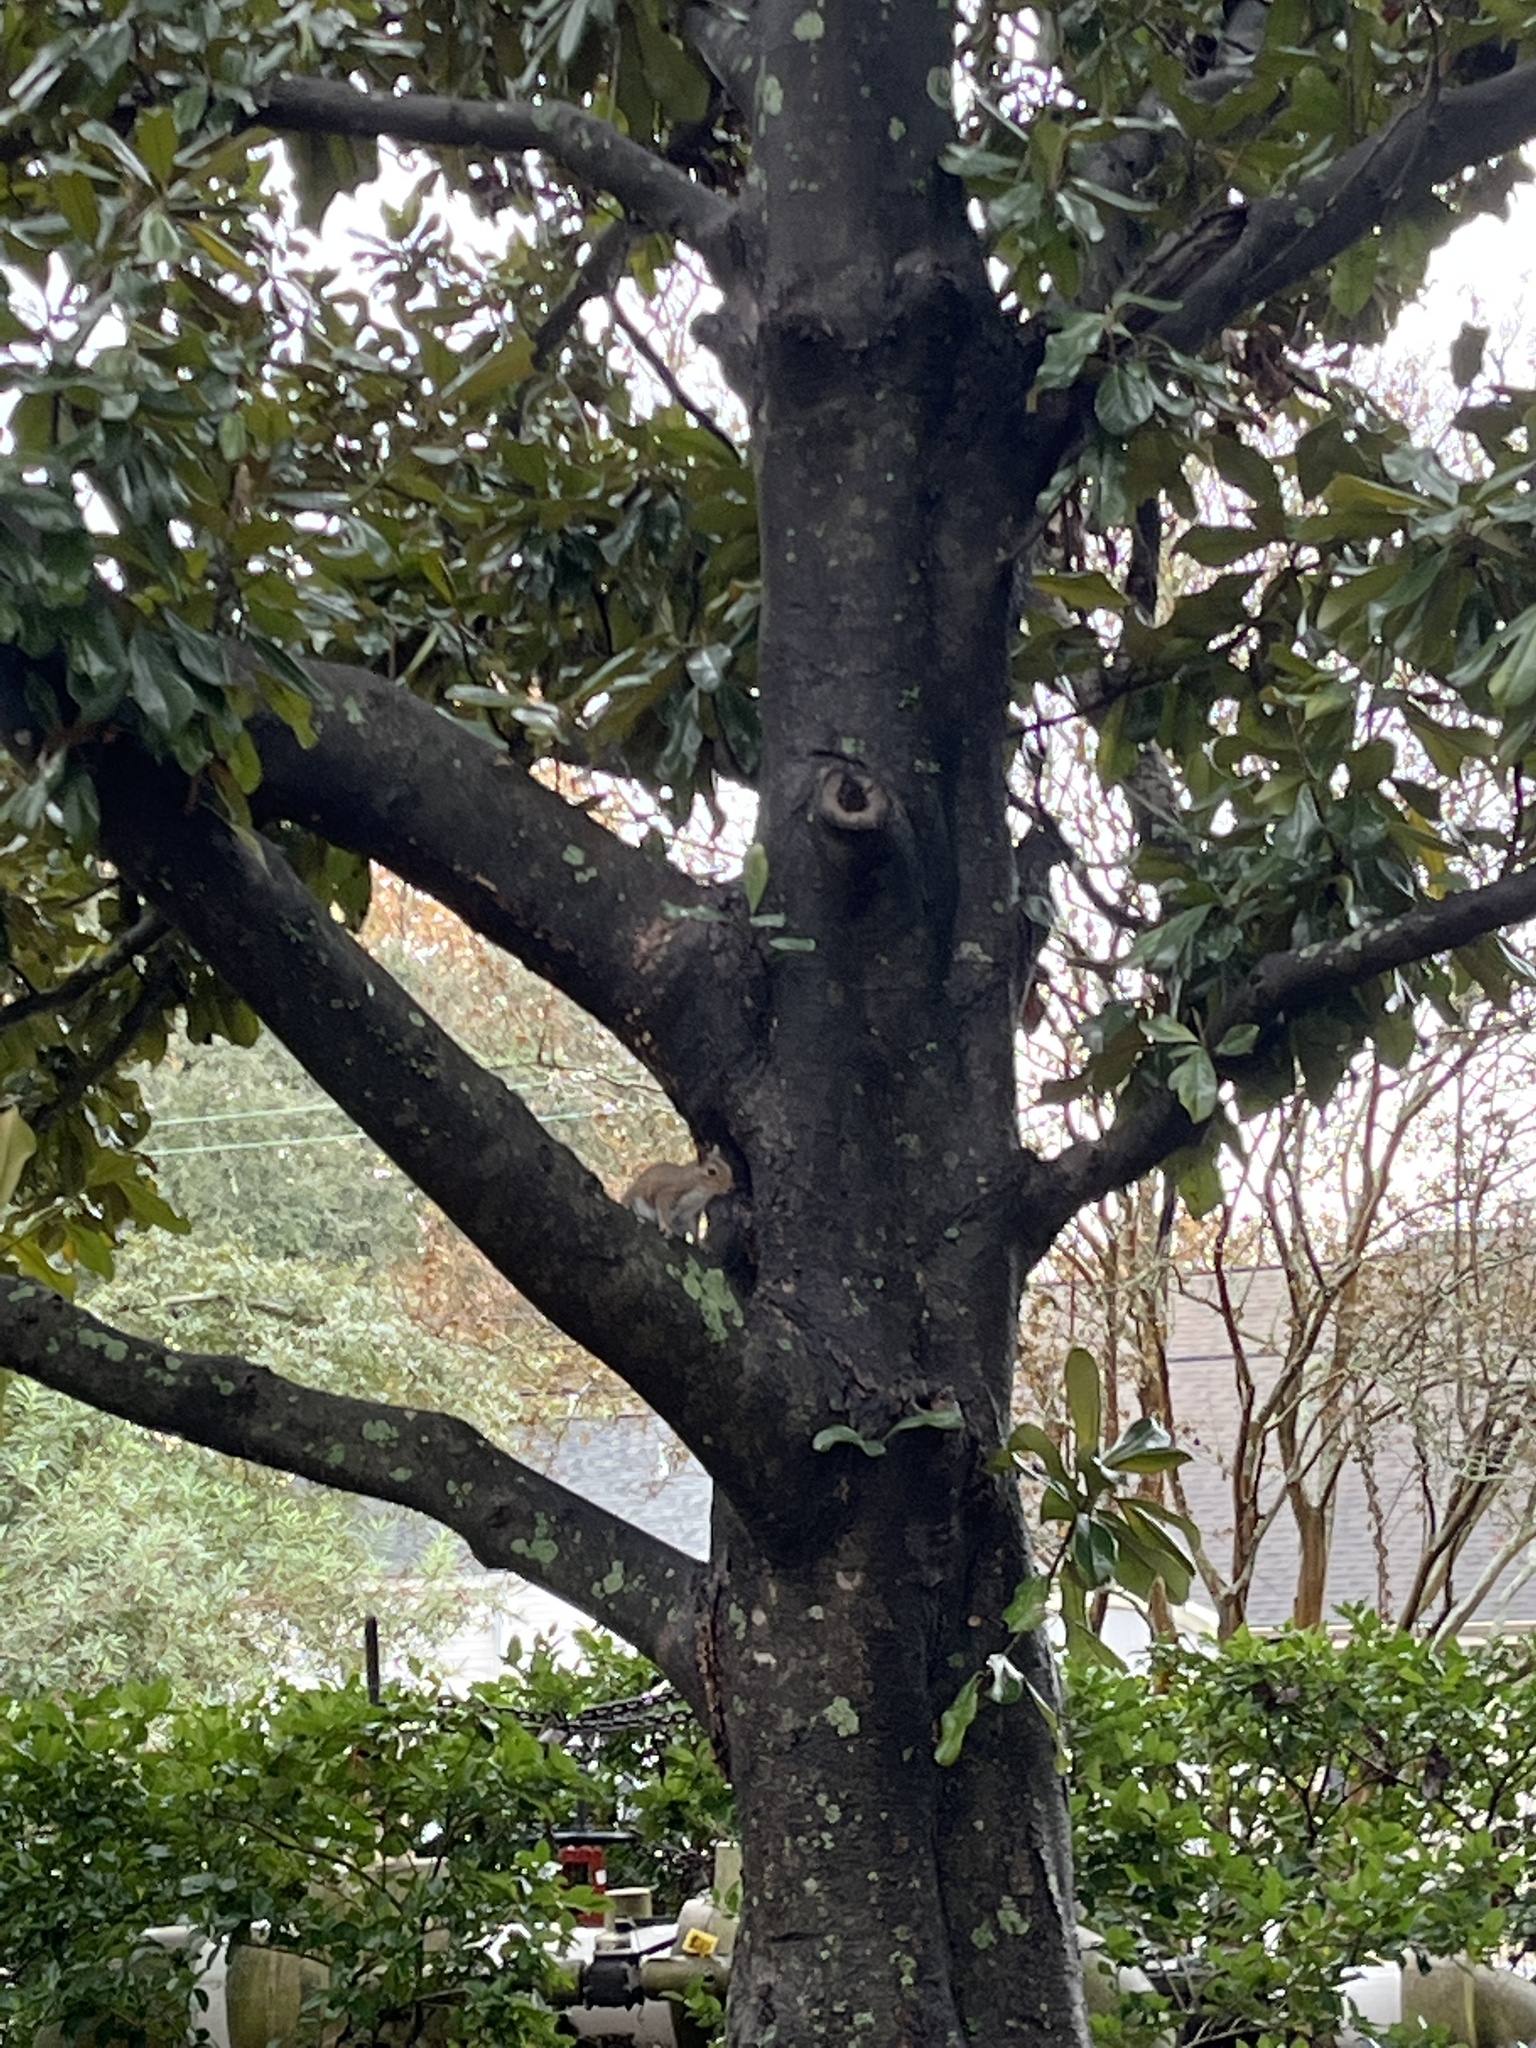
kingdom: Animalia
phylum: Chordata
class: Mammalia
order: Rodentia
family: Sciuridae
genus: Sciurus
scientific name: Sciurus carolinensis
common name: Eastern gray squirrel
